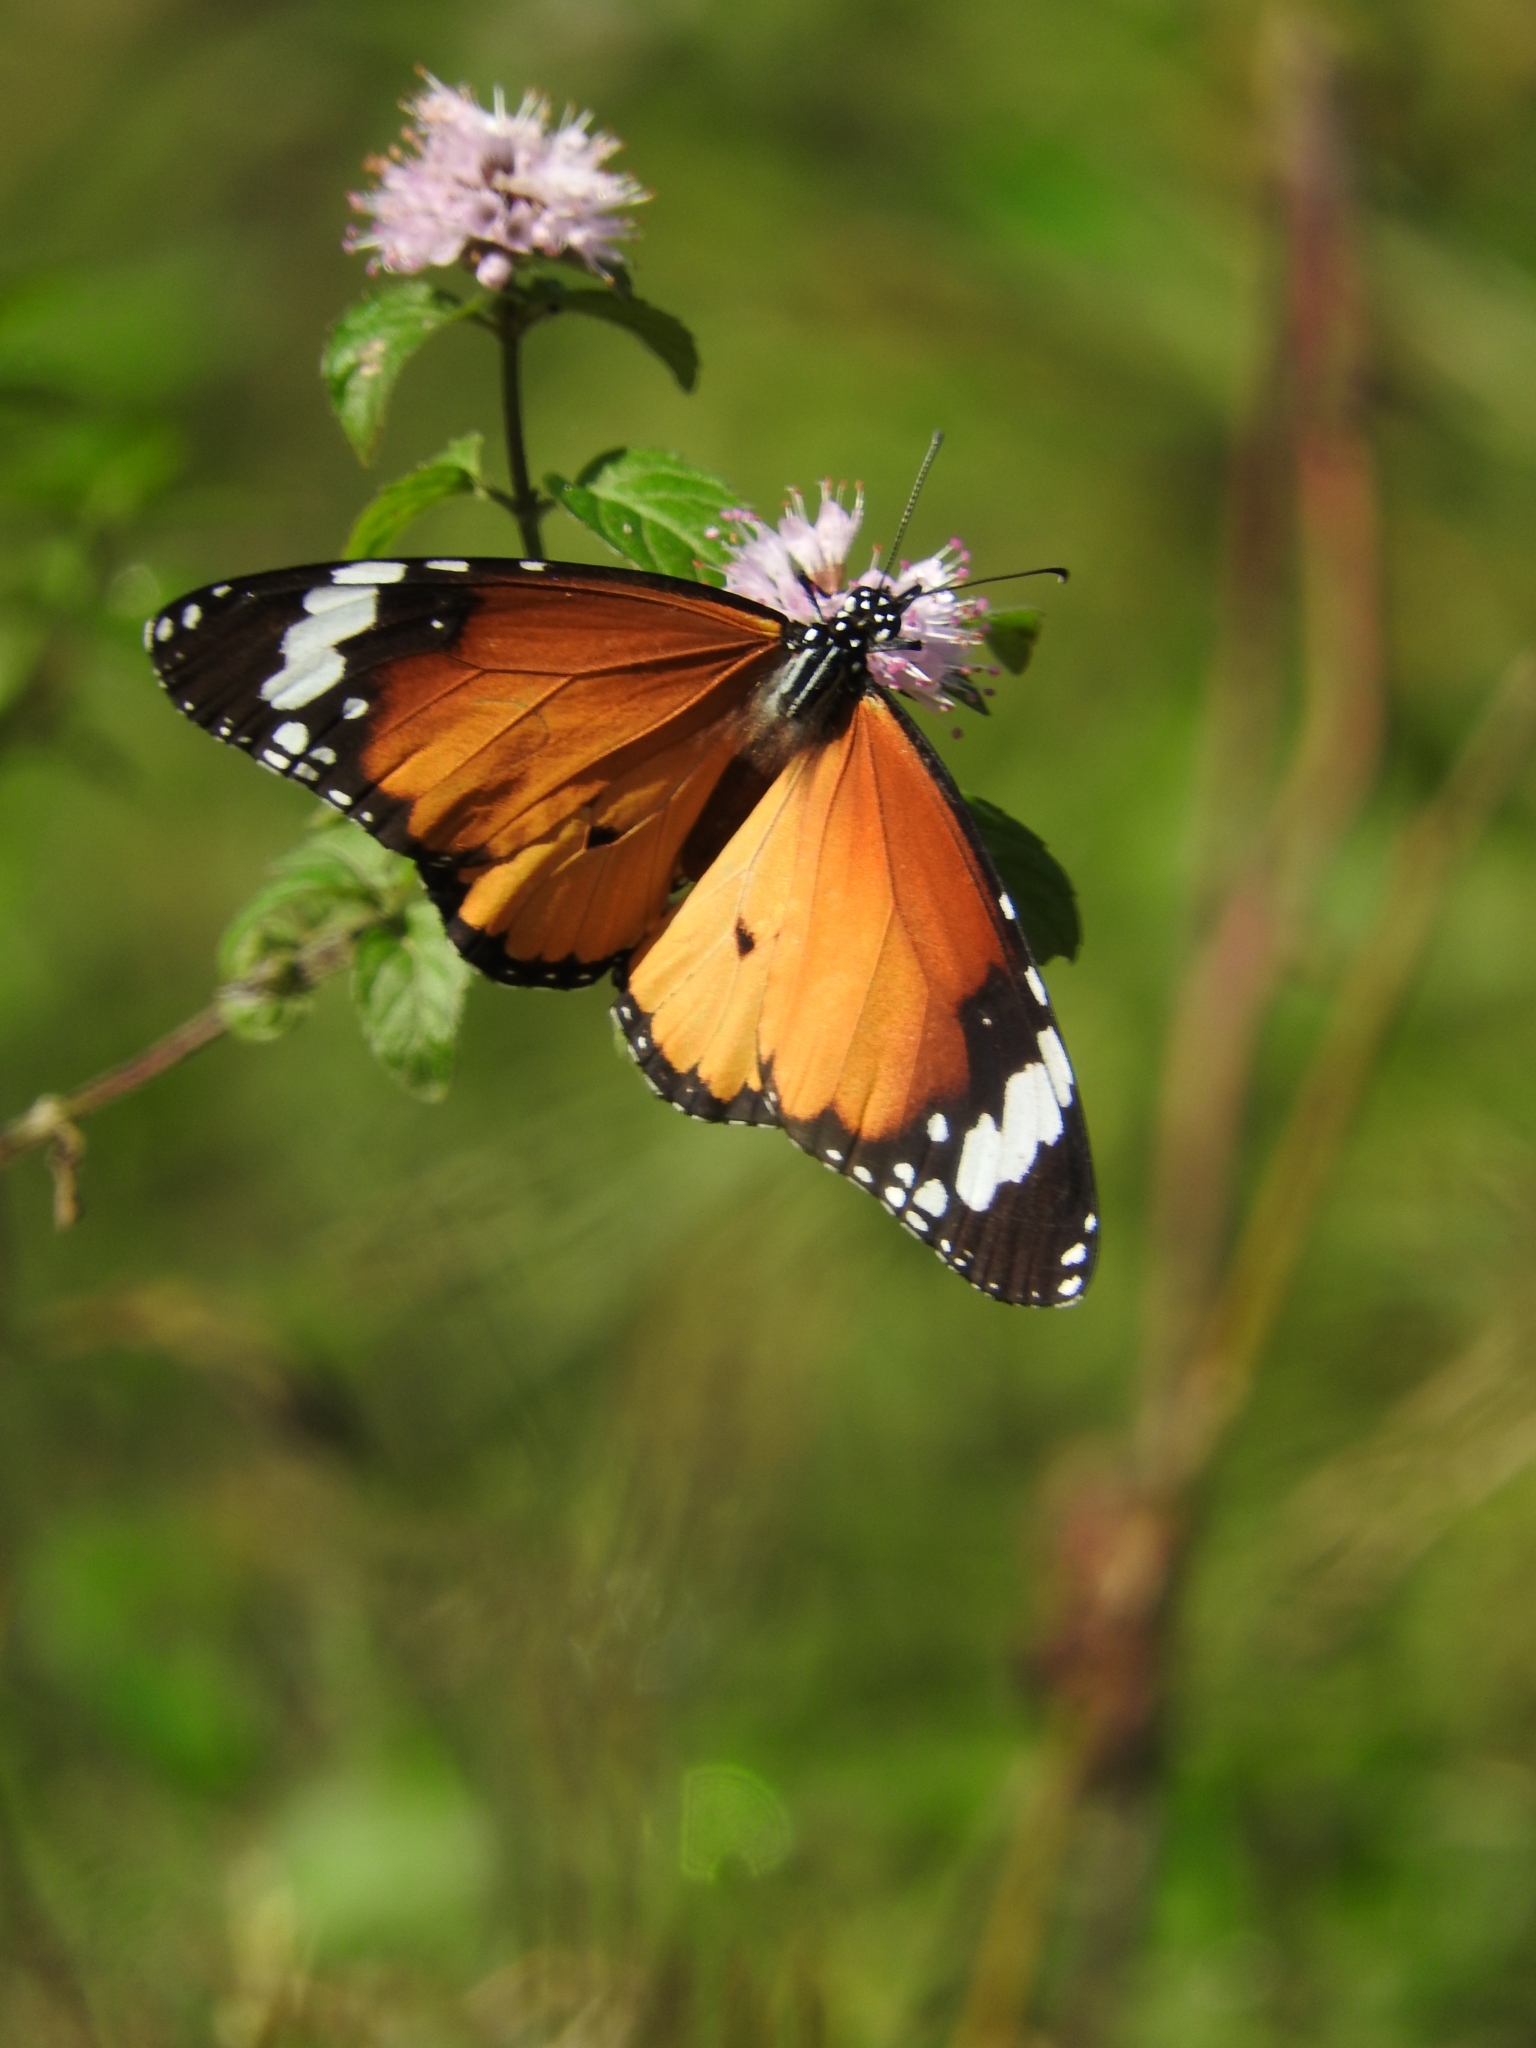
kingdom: Animalia
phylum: Arthropoda
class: Insecta
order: Lepidoptera
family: Nymphalidae
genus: Danaus
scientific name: Danaus chrysippus
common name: Plain tiger
